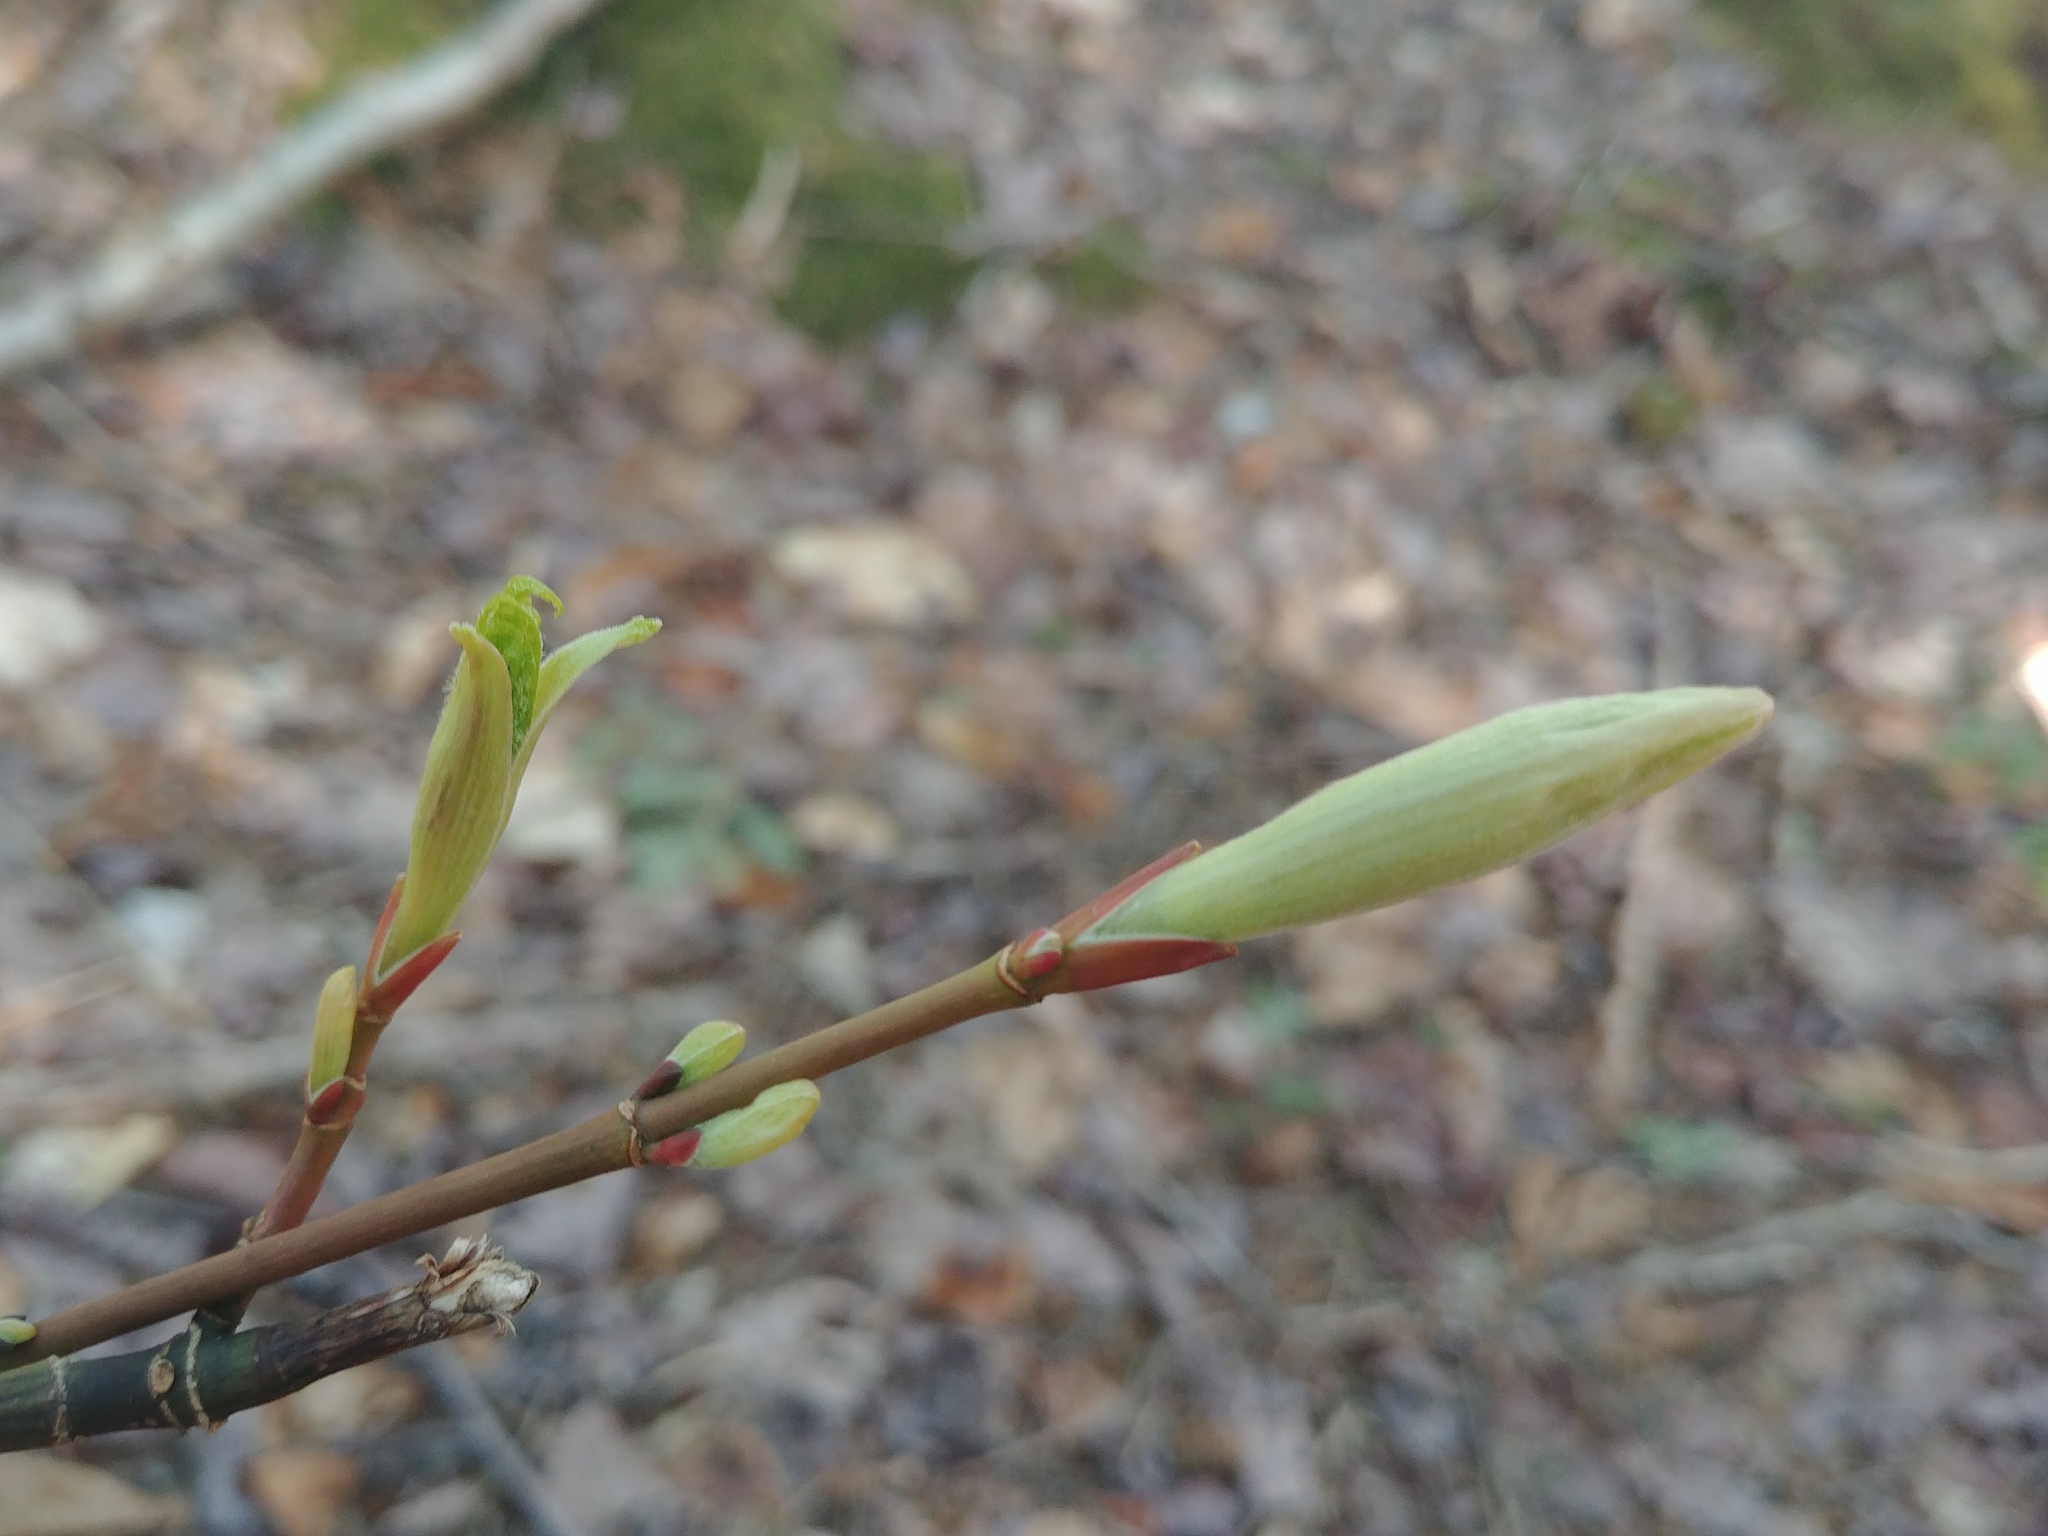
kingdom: Plantae
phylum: Tracheophyta
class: Magnoliopsida
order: Sapindales
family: Sapindaceae
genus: Acer
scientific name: Acer pensylvanicum
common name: Moosewood
